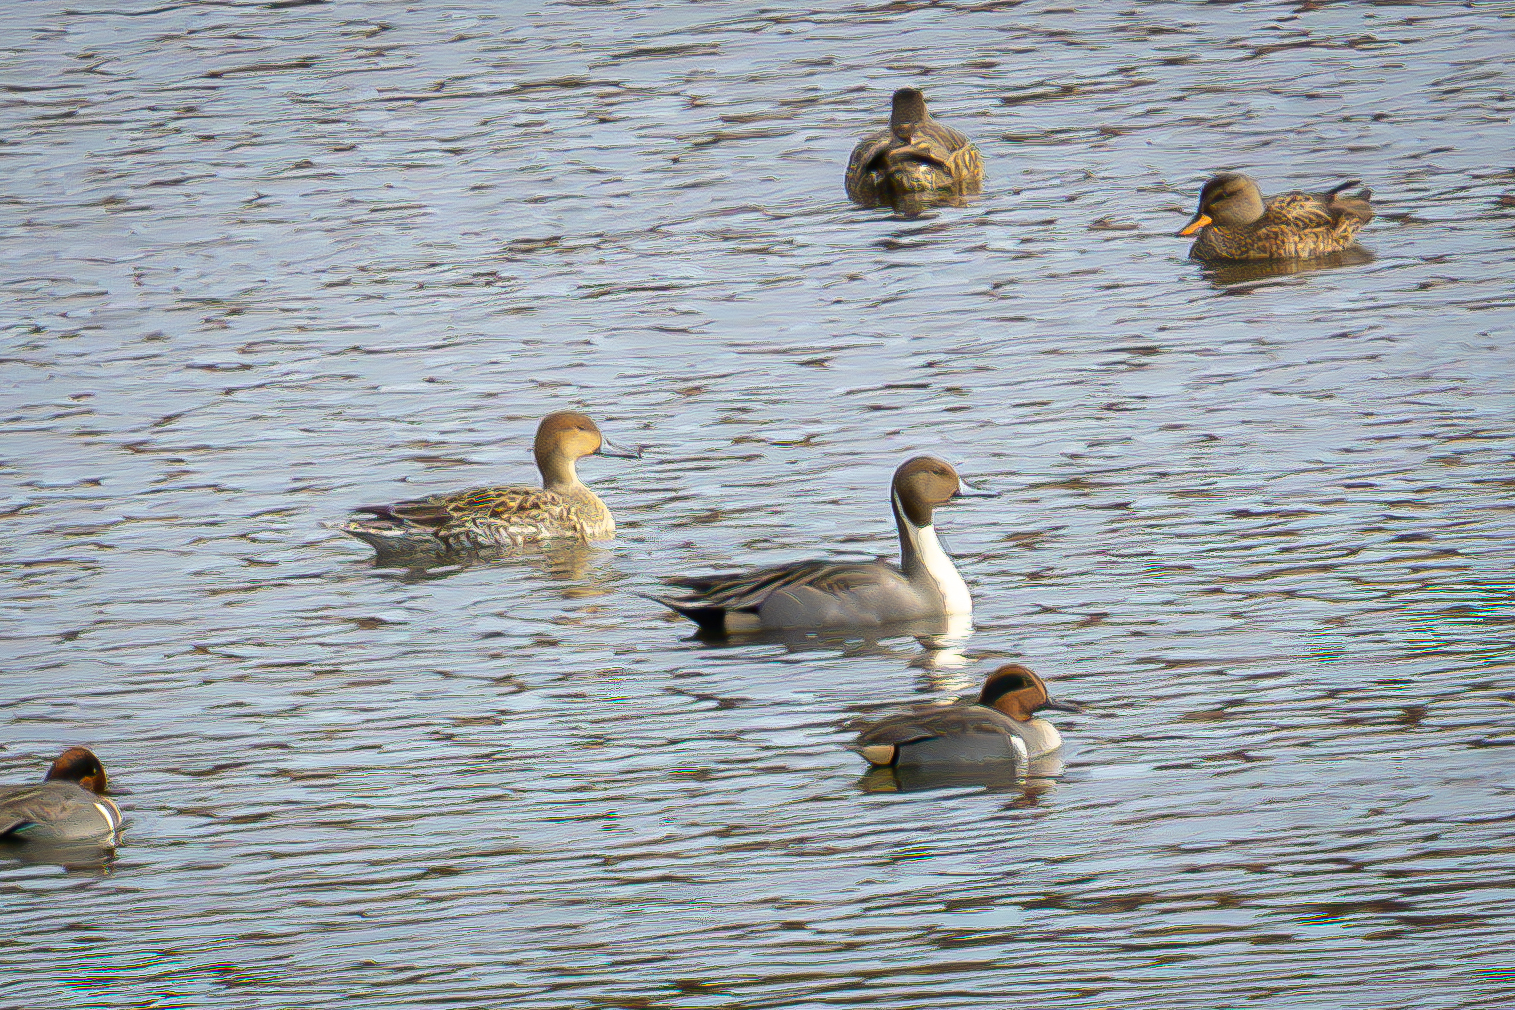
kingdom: Animalia
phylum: Chordata
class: Aves
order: Anseriformes
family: Anatidae
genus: Anas
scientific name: Anas acuta
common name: Northern pintail
